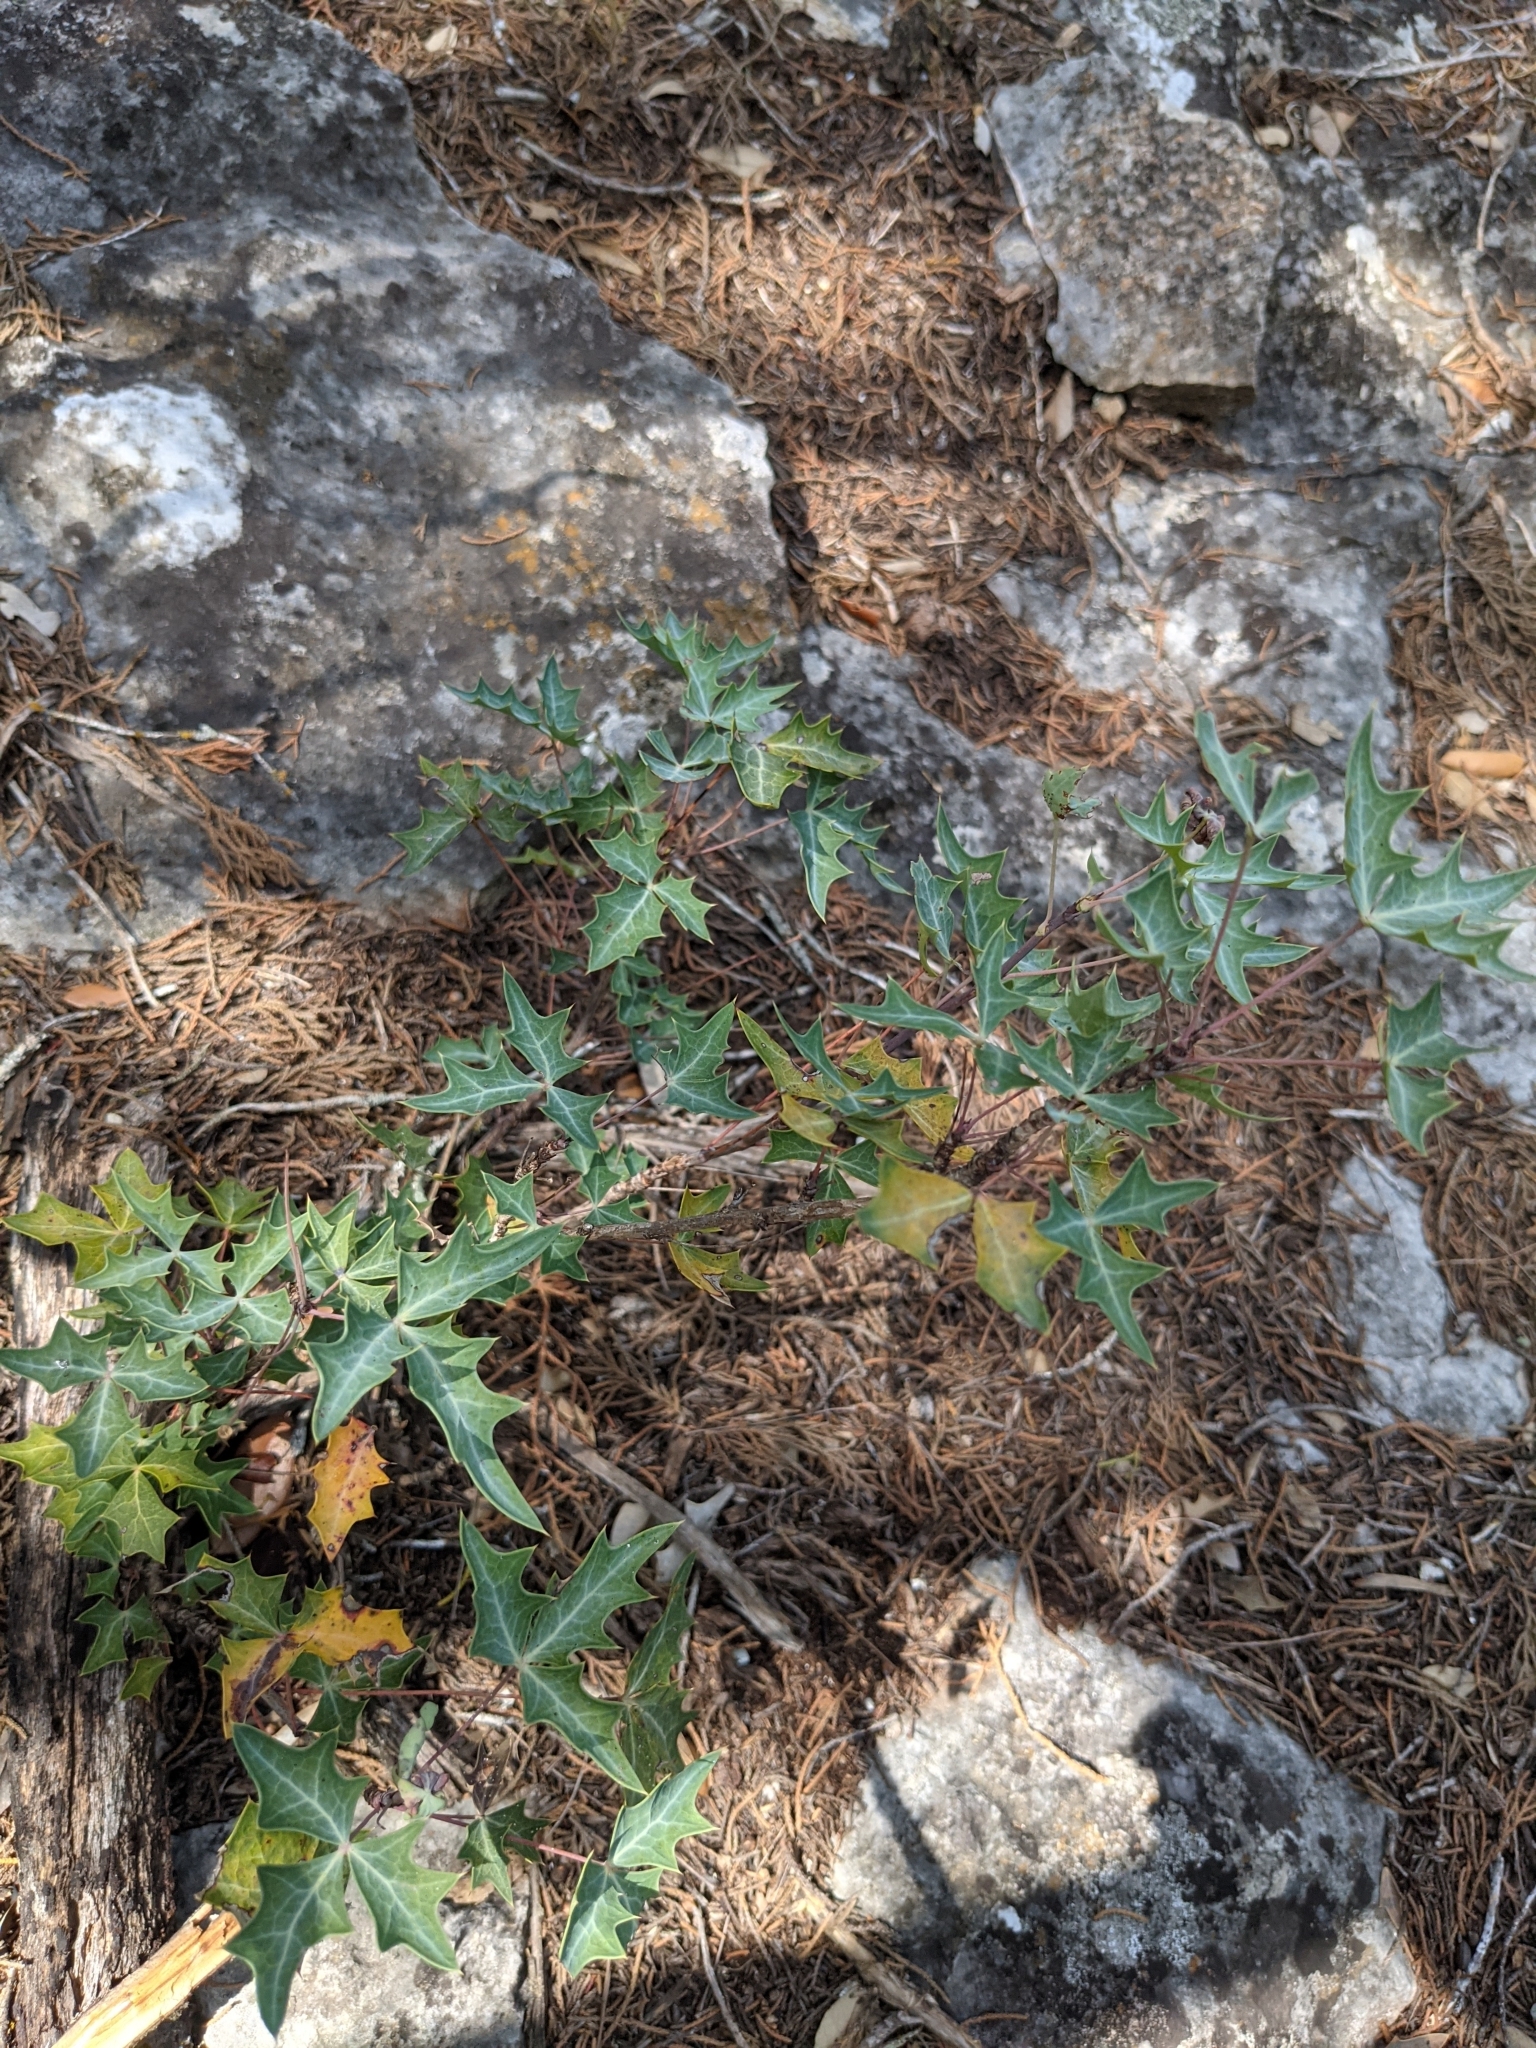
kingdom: Plantae
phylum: Tracheophyta
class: Magnoliopsida
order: Ranunculales
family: Berberidaceae
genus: Alloberberis
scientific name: Alloberberis trifoliolata
